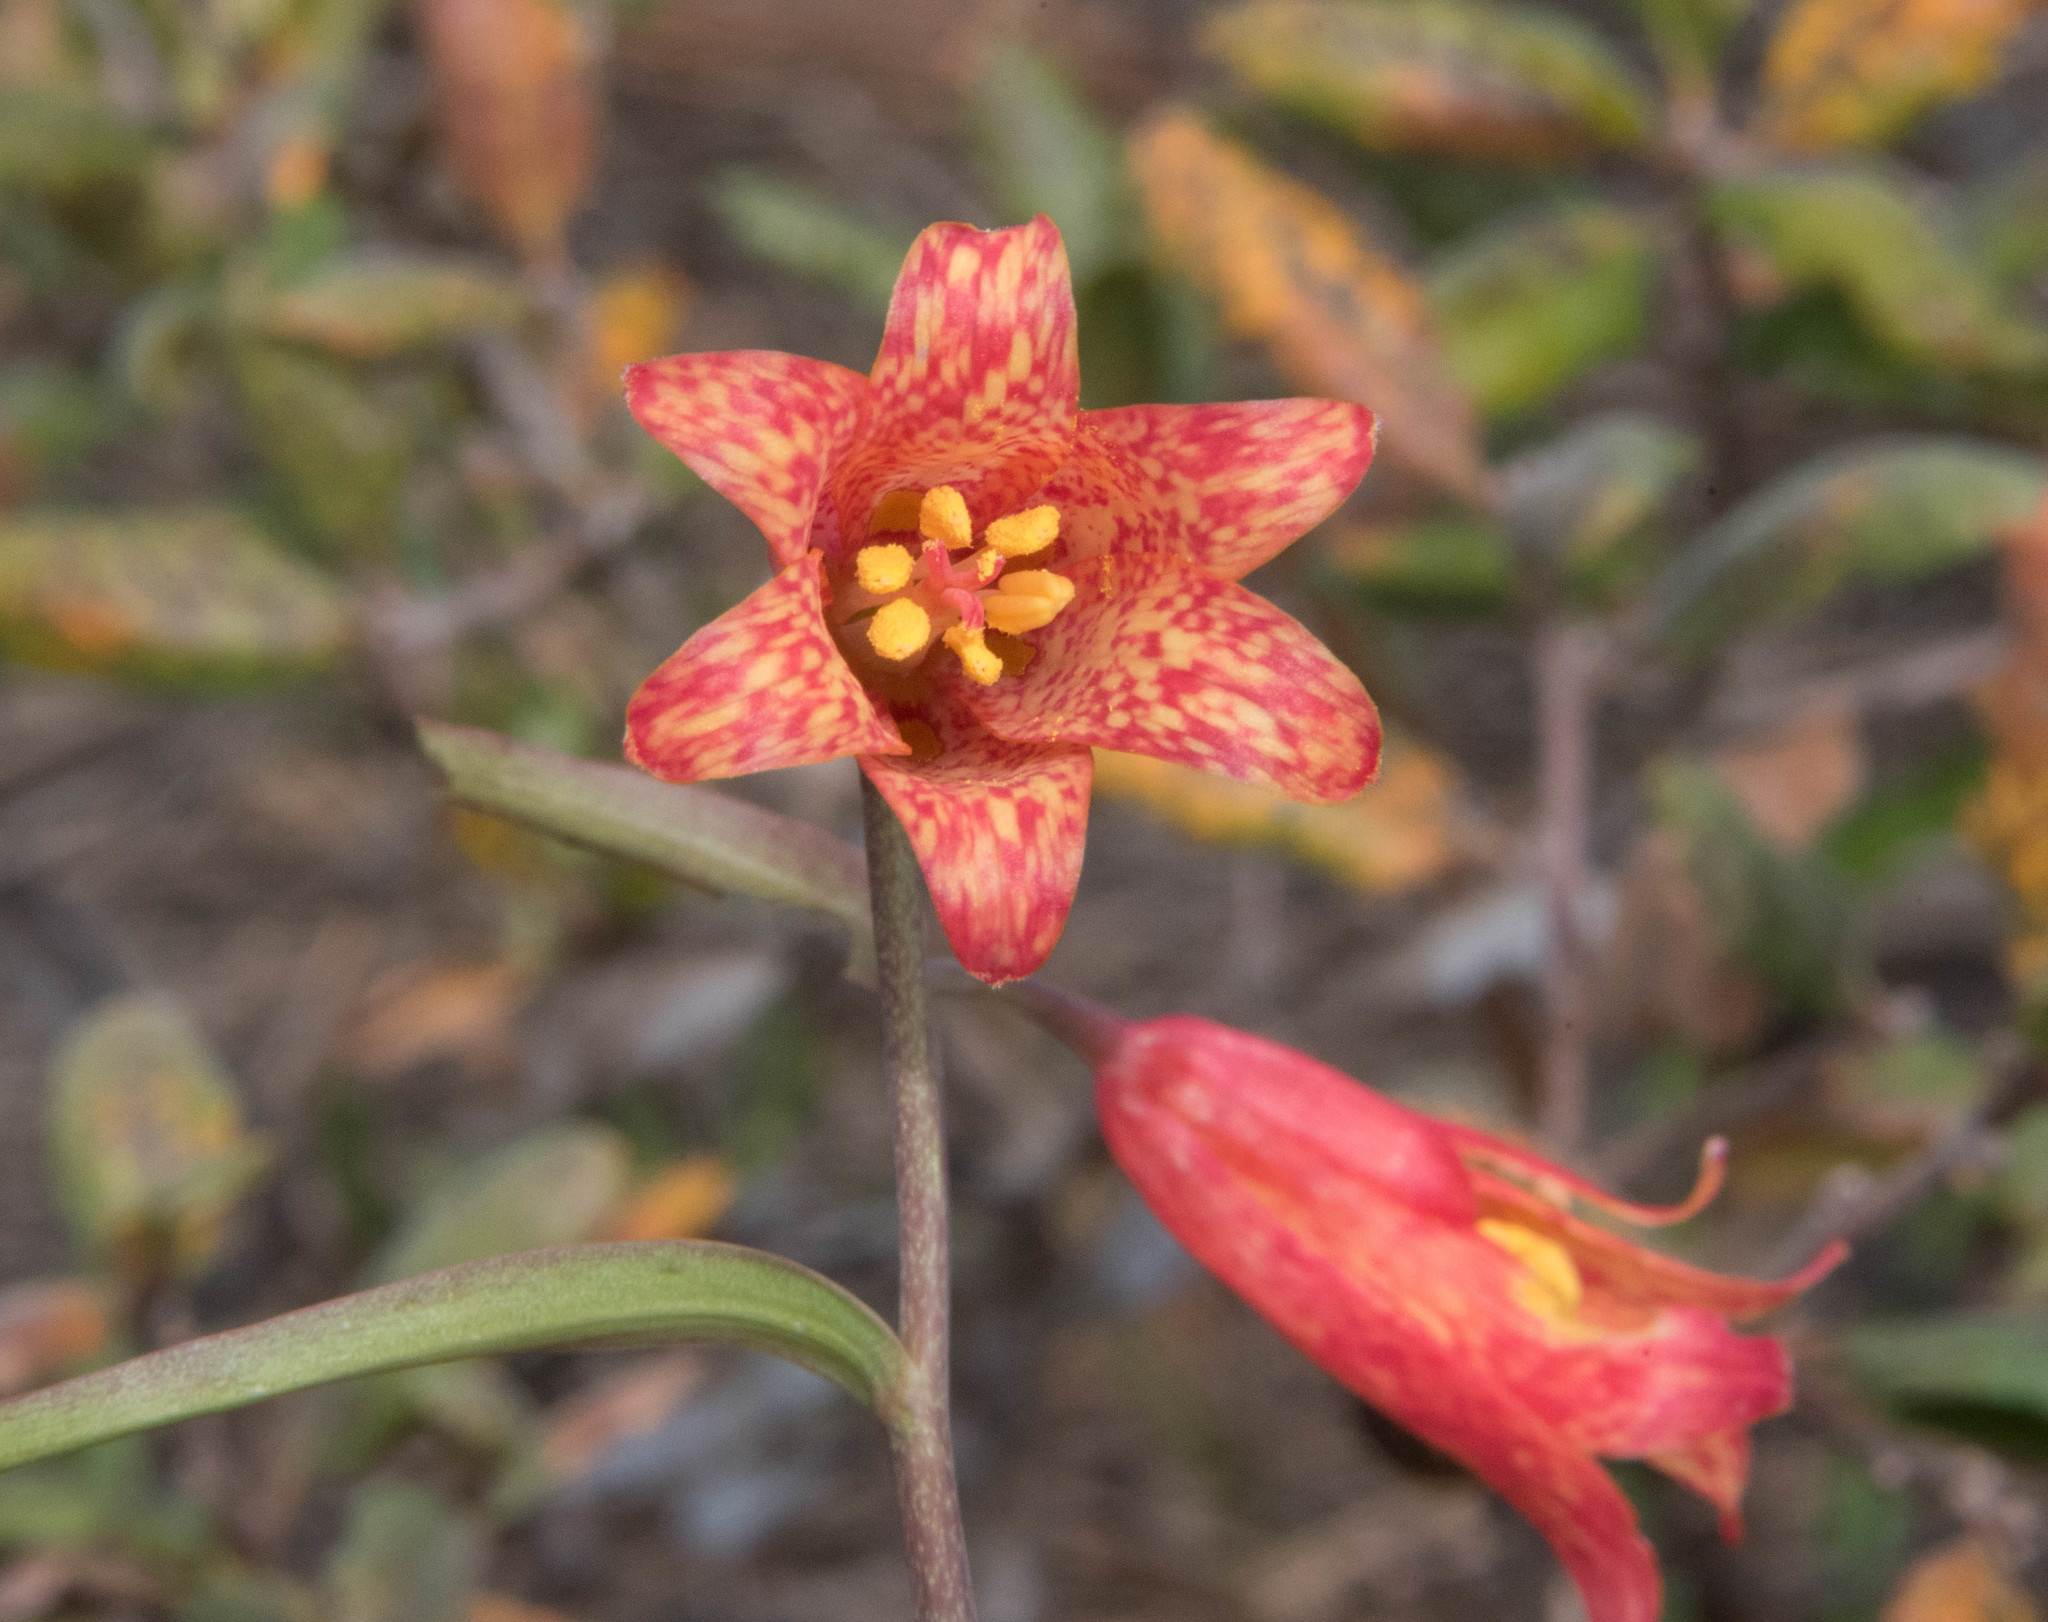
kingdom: Plantae
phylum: Tracheophyta
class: Liliopsida
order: Liliales
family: Liliaceae
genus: Fritillaria
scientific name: Fritillaria recurva
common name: Scarlet fritillary
